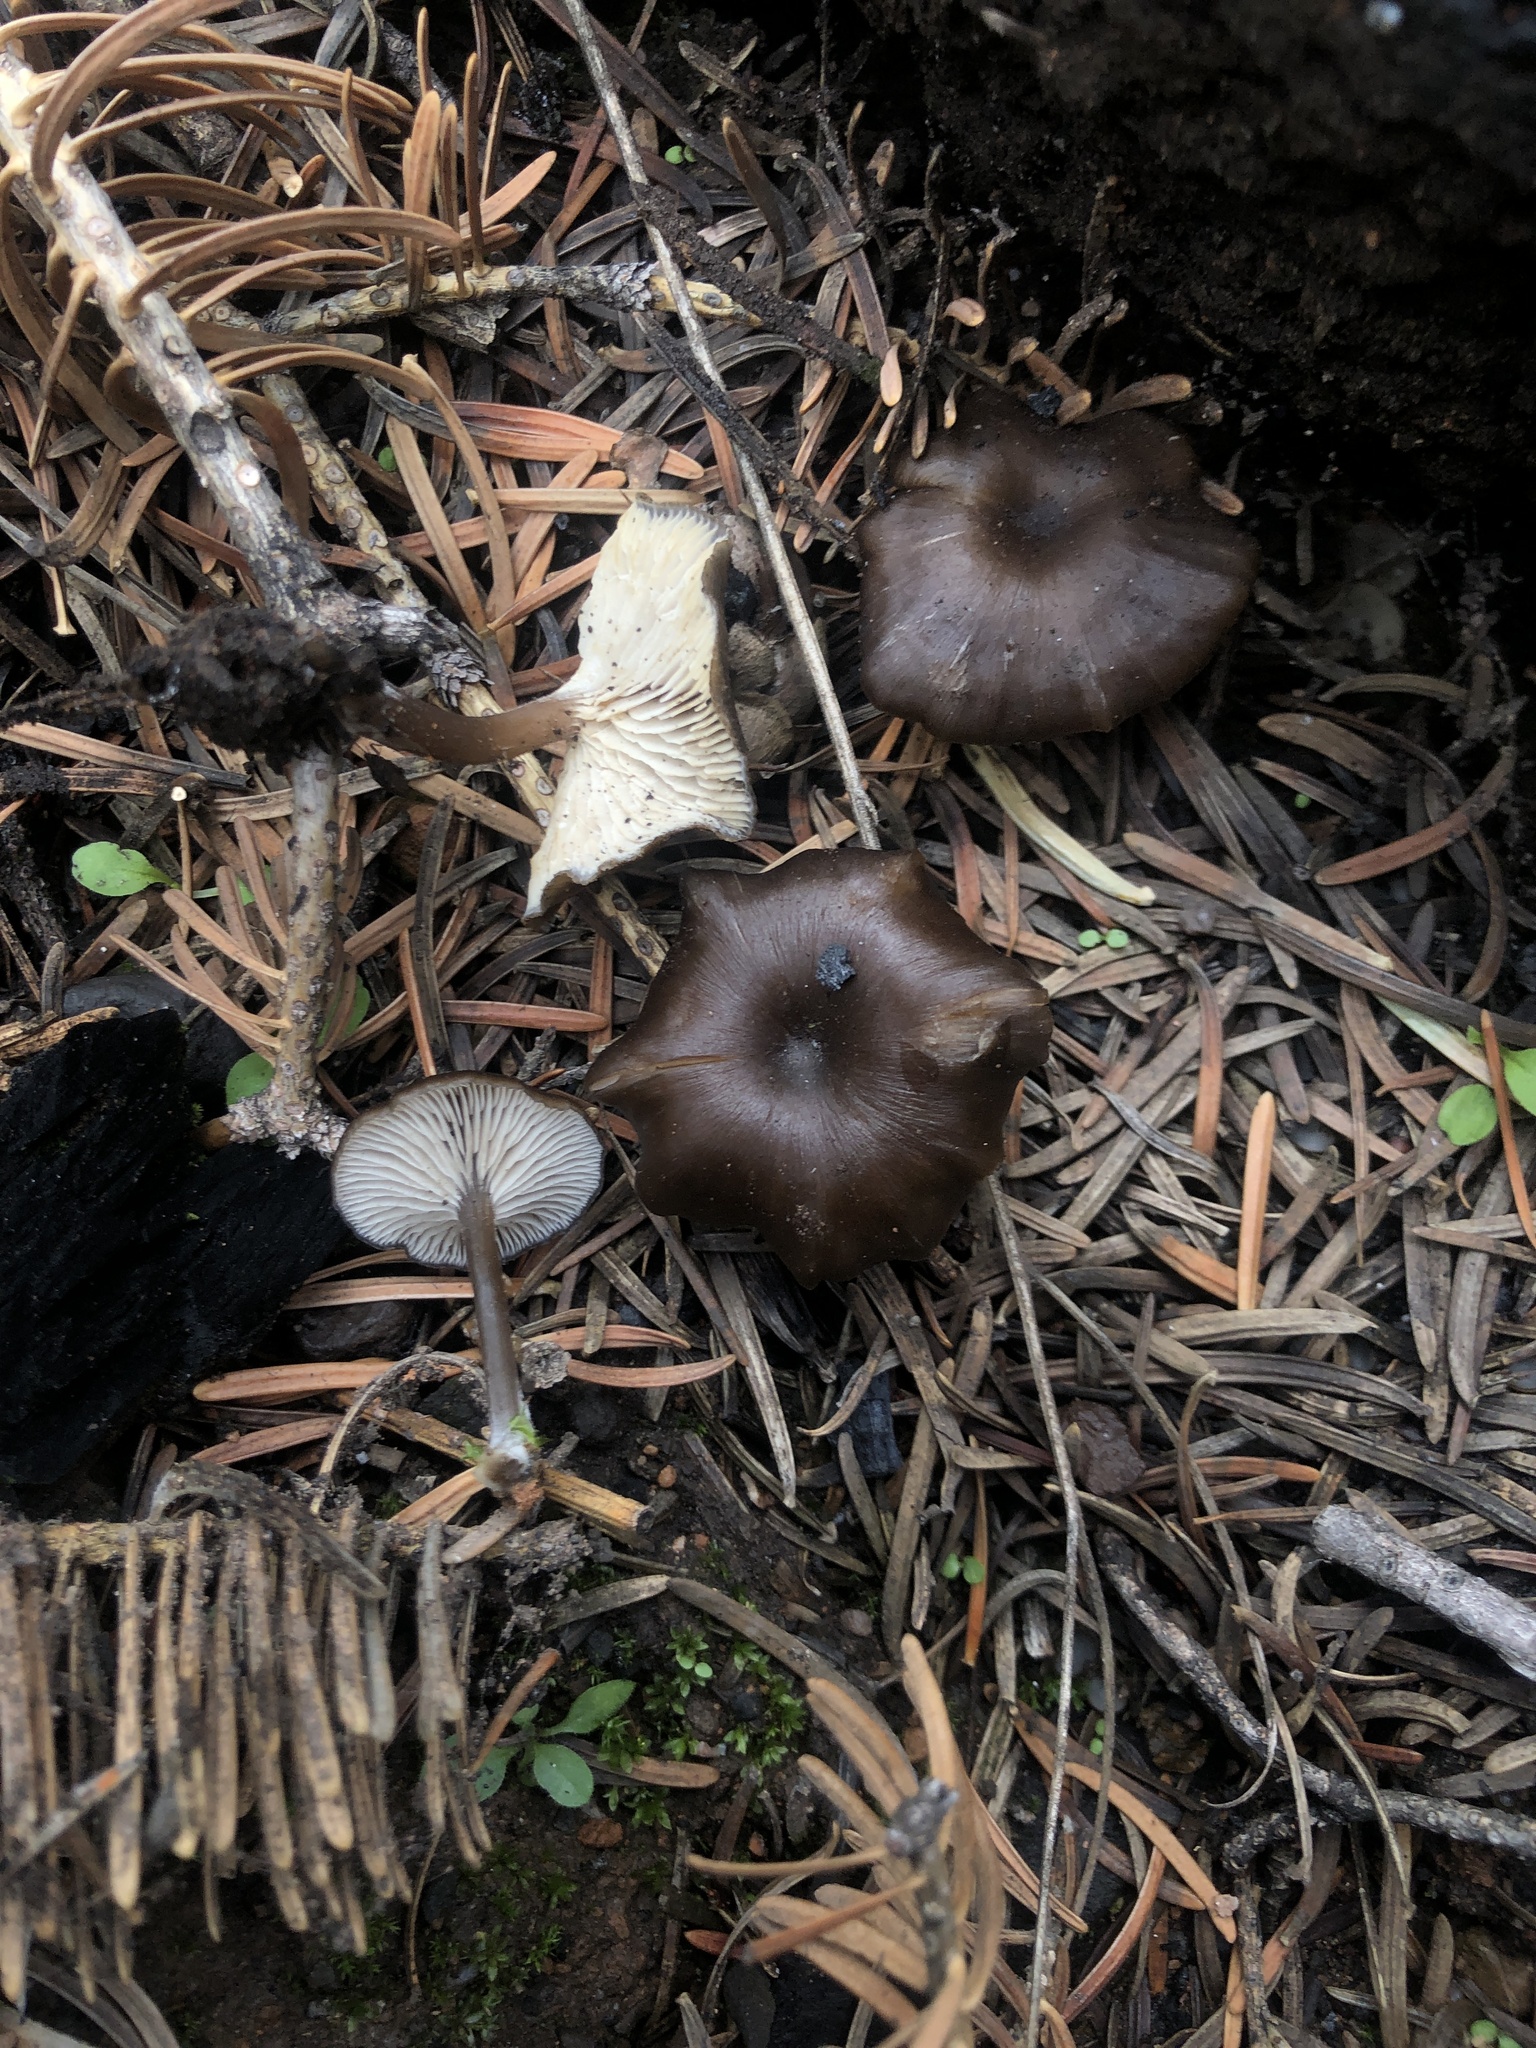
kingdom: Fungi
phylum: Basidiomycota
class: Agaricomycetes
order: Agaricales
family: Tricholomataceae
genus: Myxomphalia
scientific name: Myxomphalia maura
